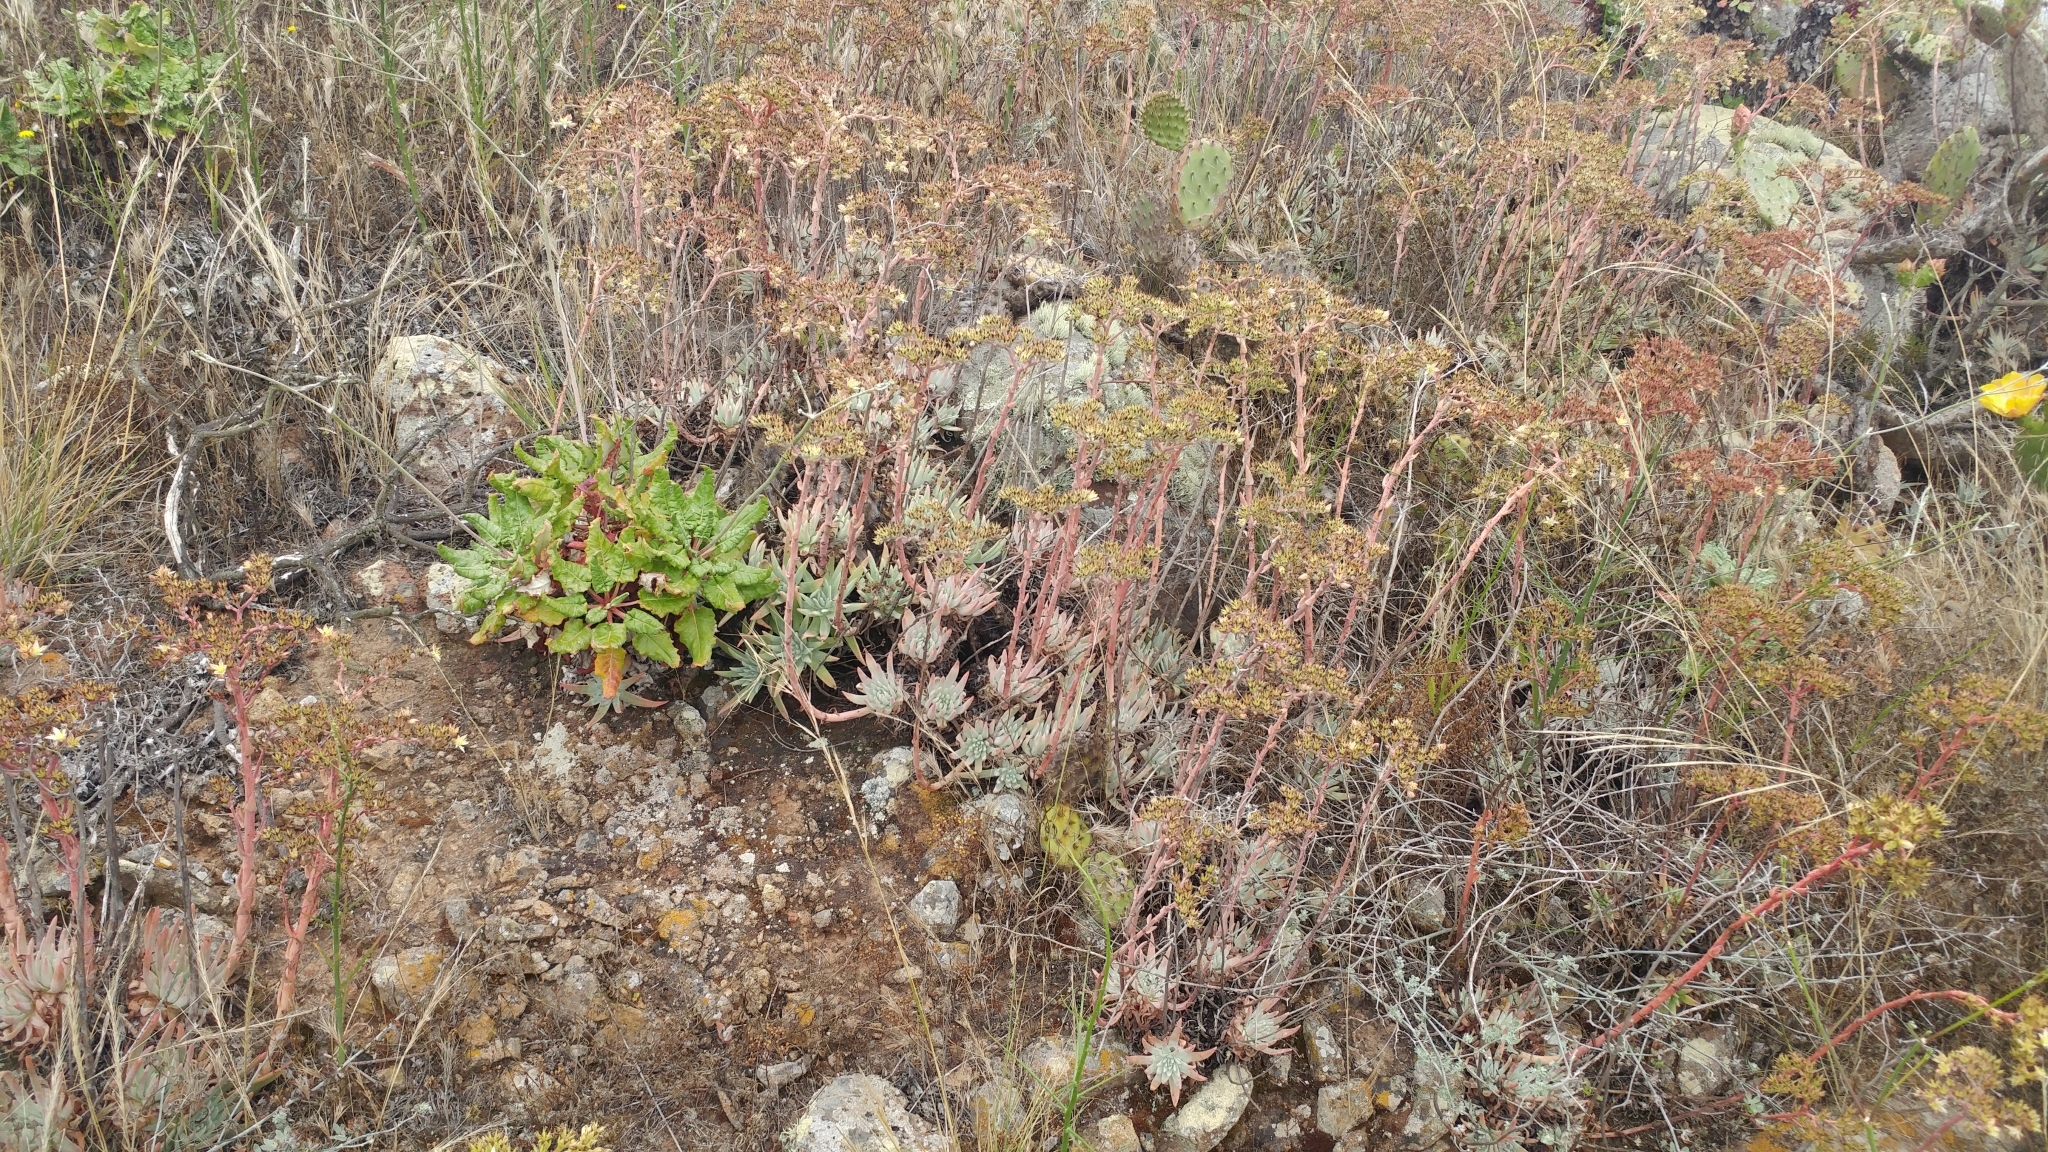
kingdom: Plantae
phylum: Tracheophyta
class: Magnoliopsida
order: Saxifragales
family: Crassulaceae
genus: Dudleya
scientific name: Dudleya virens
